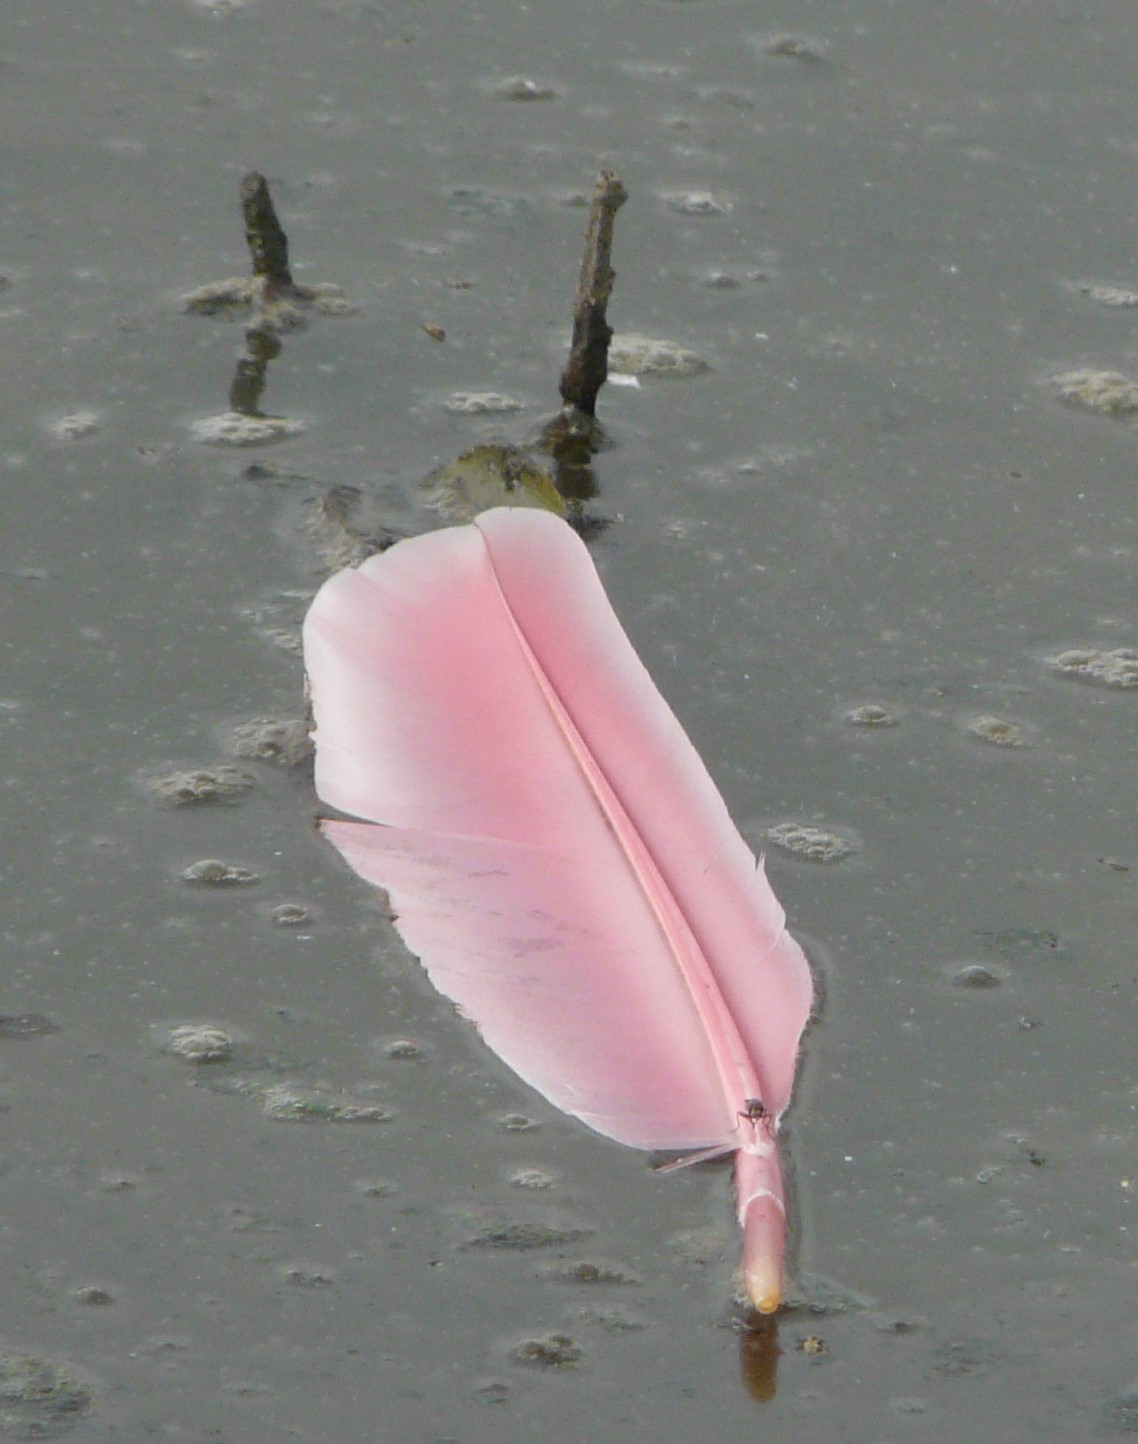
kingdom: Animalia
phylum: Chordata
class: Aves
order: Pelecaniformes
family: Threskiornithidae
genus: Platalea
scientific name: Platalea ajaja
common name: Roseate spoonbill
